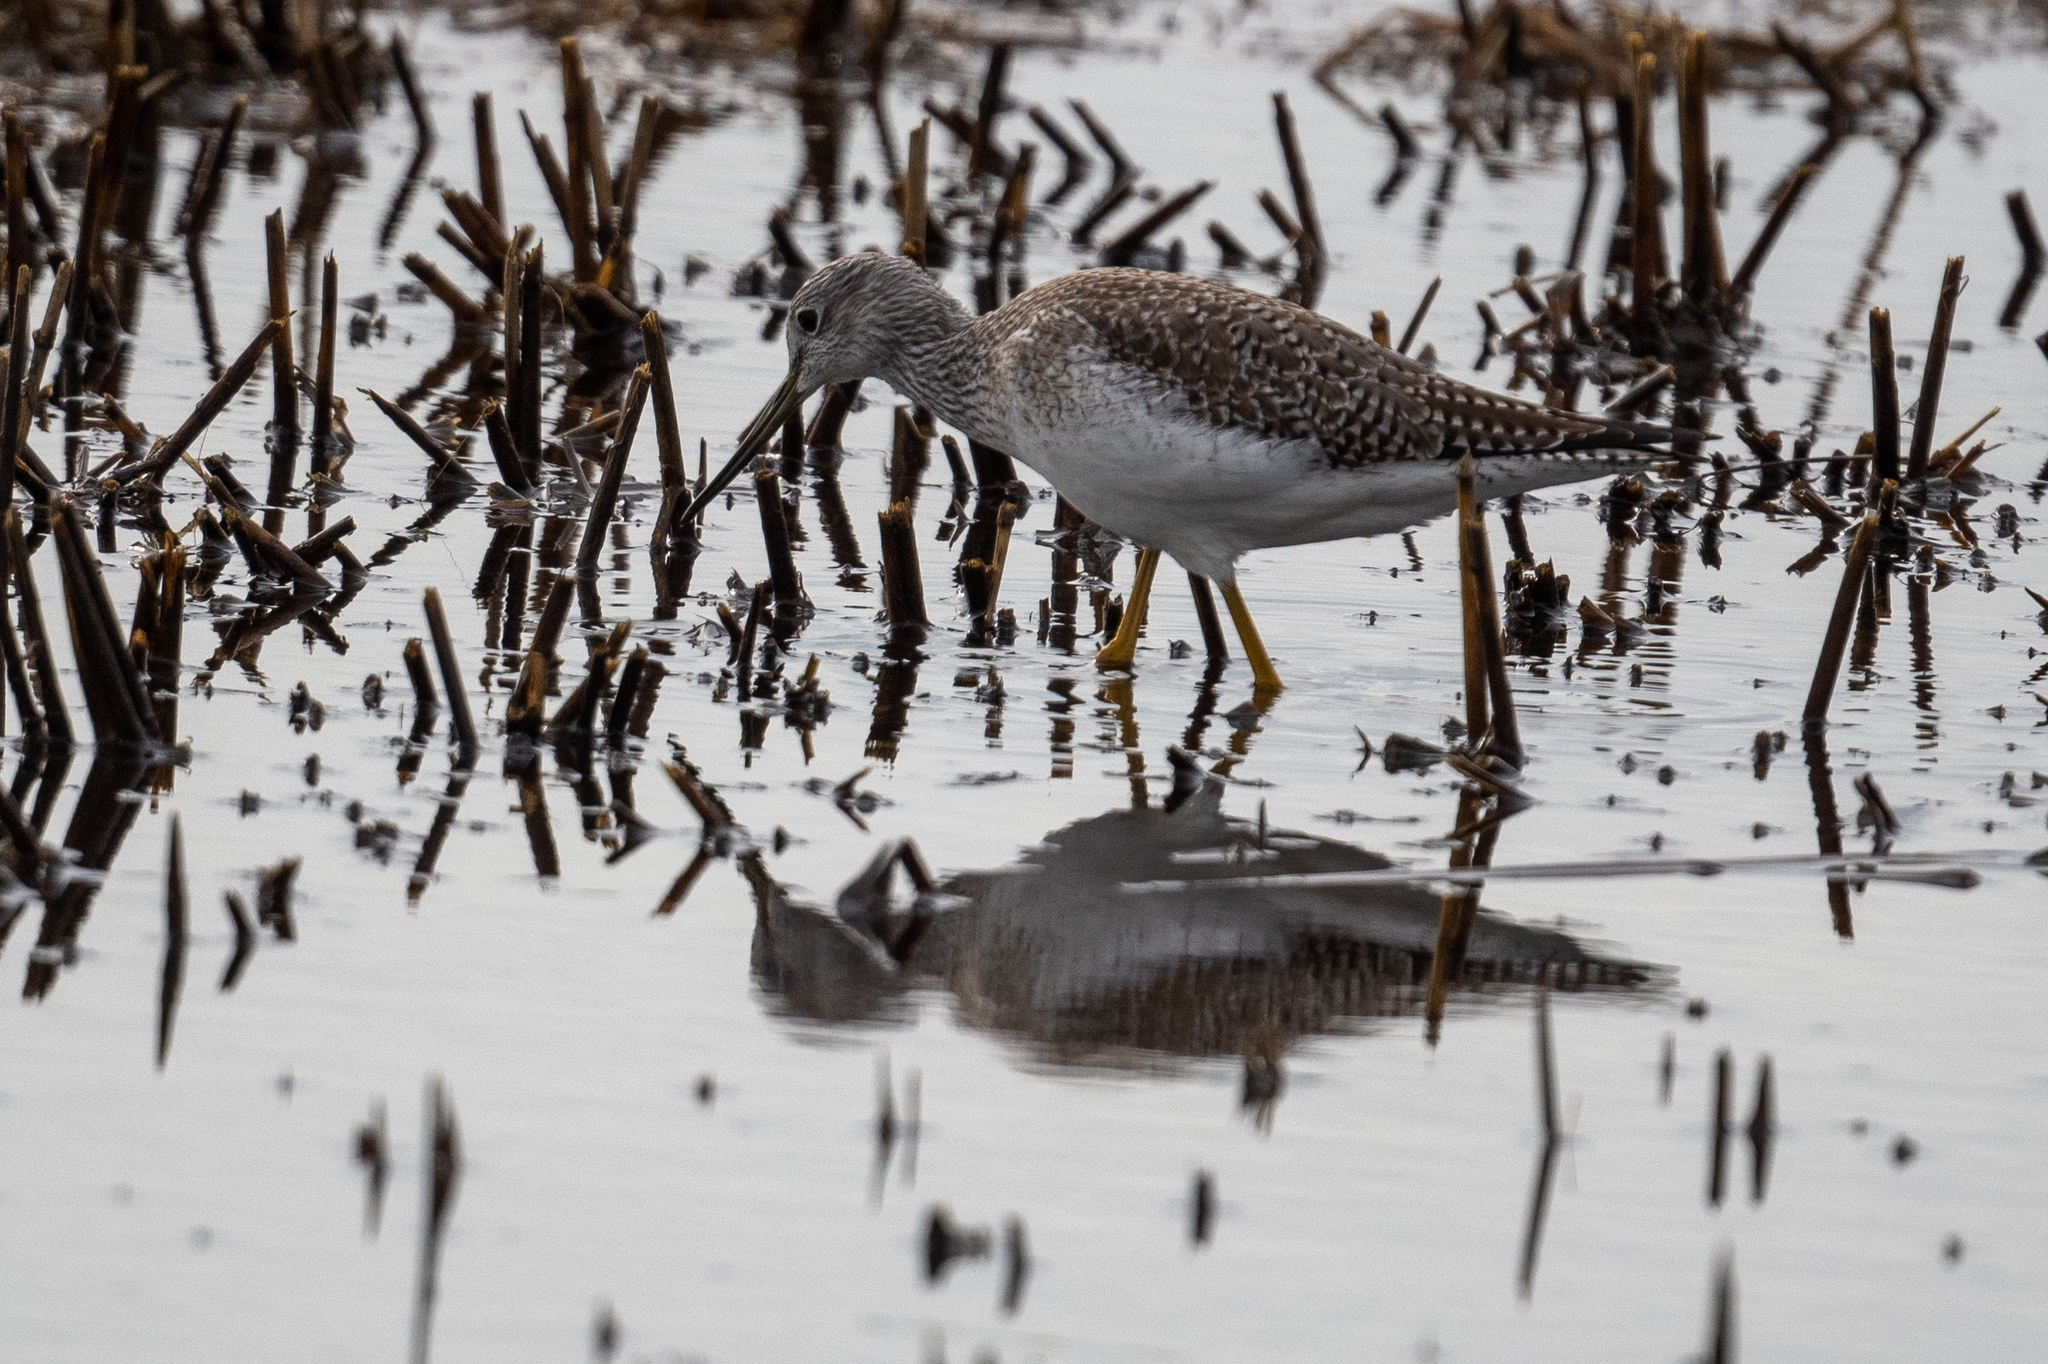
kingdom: Animalia
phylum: Chordata
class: Aves
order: Charadriiformes
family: Scolopacidae
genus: Tringa
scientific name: Tringa melanoleuca
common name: Greater yellowlegs
